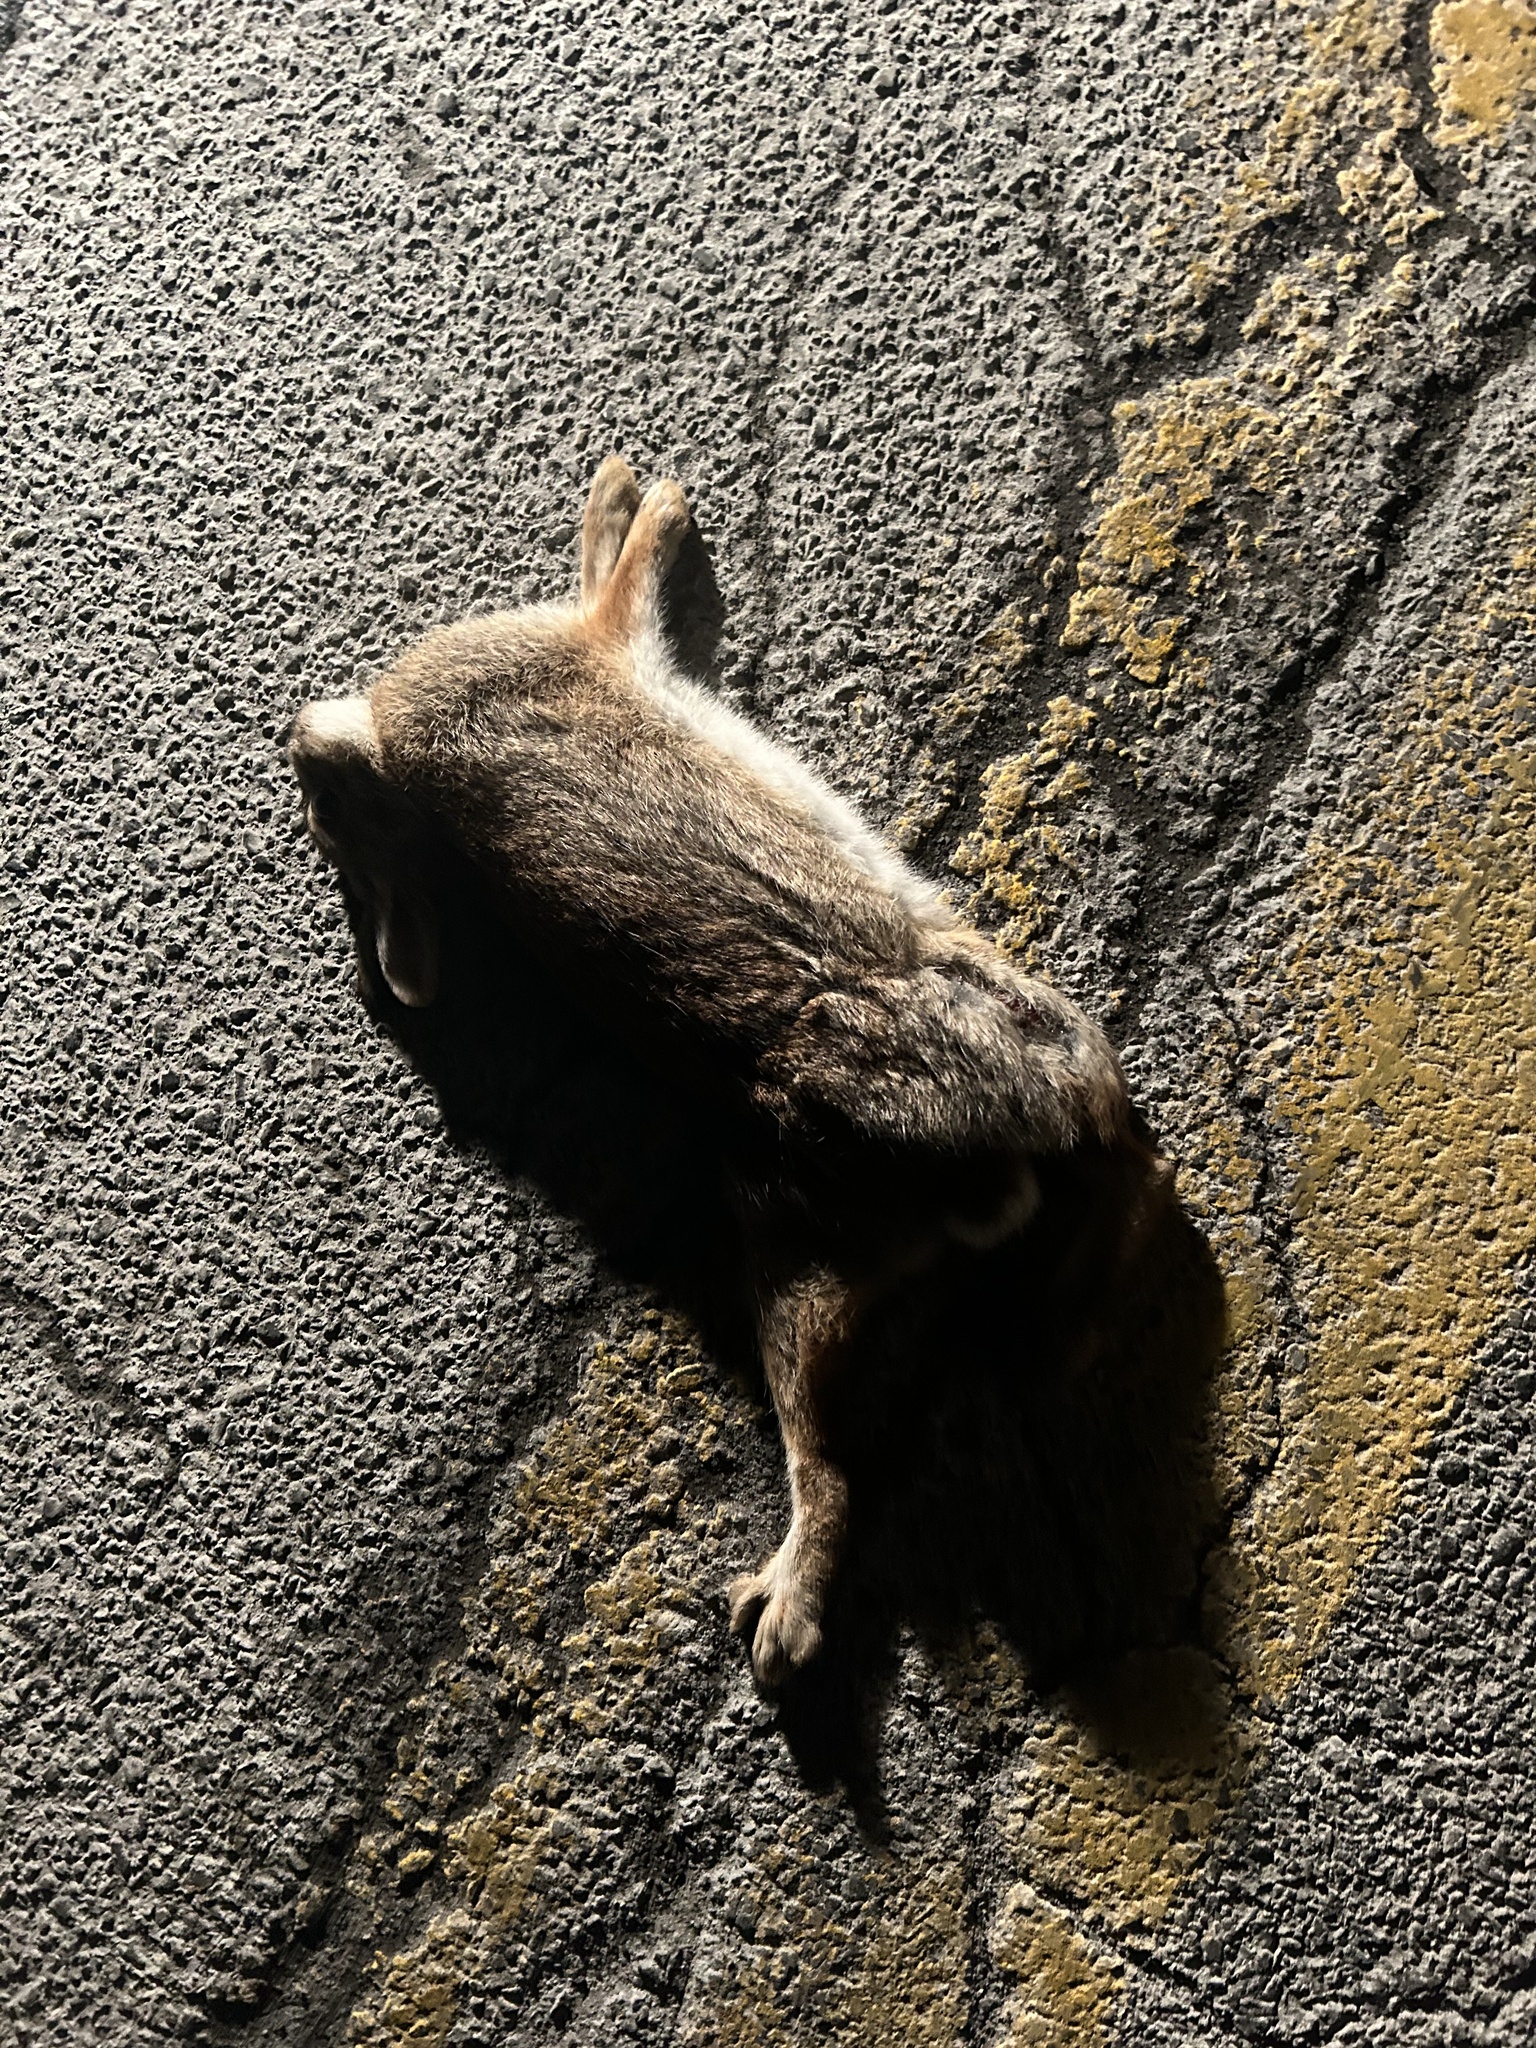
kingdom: Animalia
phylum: Chordata
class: Mammalia
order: Lagomorpha
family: Leporidae
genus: Sylvilagus
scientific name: Sylvilagus floridanus
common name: Eastern cottontail
